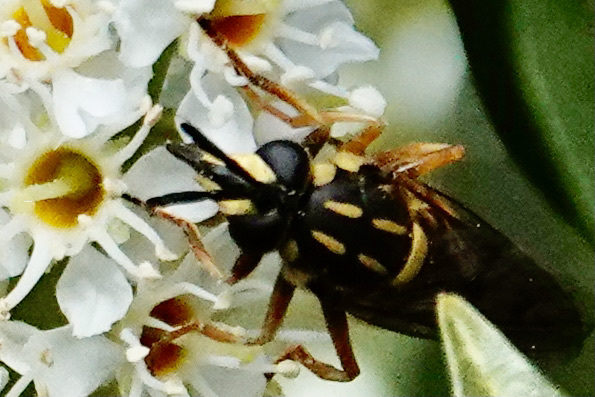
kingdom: Animalia
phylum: Arthropoda
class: Insecta
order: Diptera
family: Syrphidae
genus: Sphecomyia
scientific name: Sphecomyia vittata
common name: Long-horned yellowjacket fly
